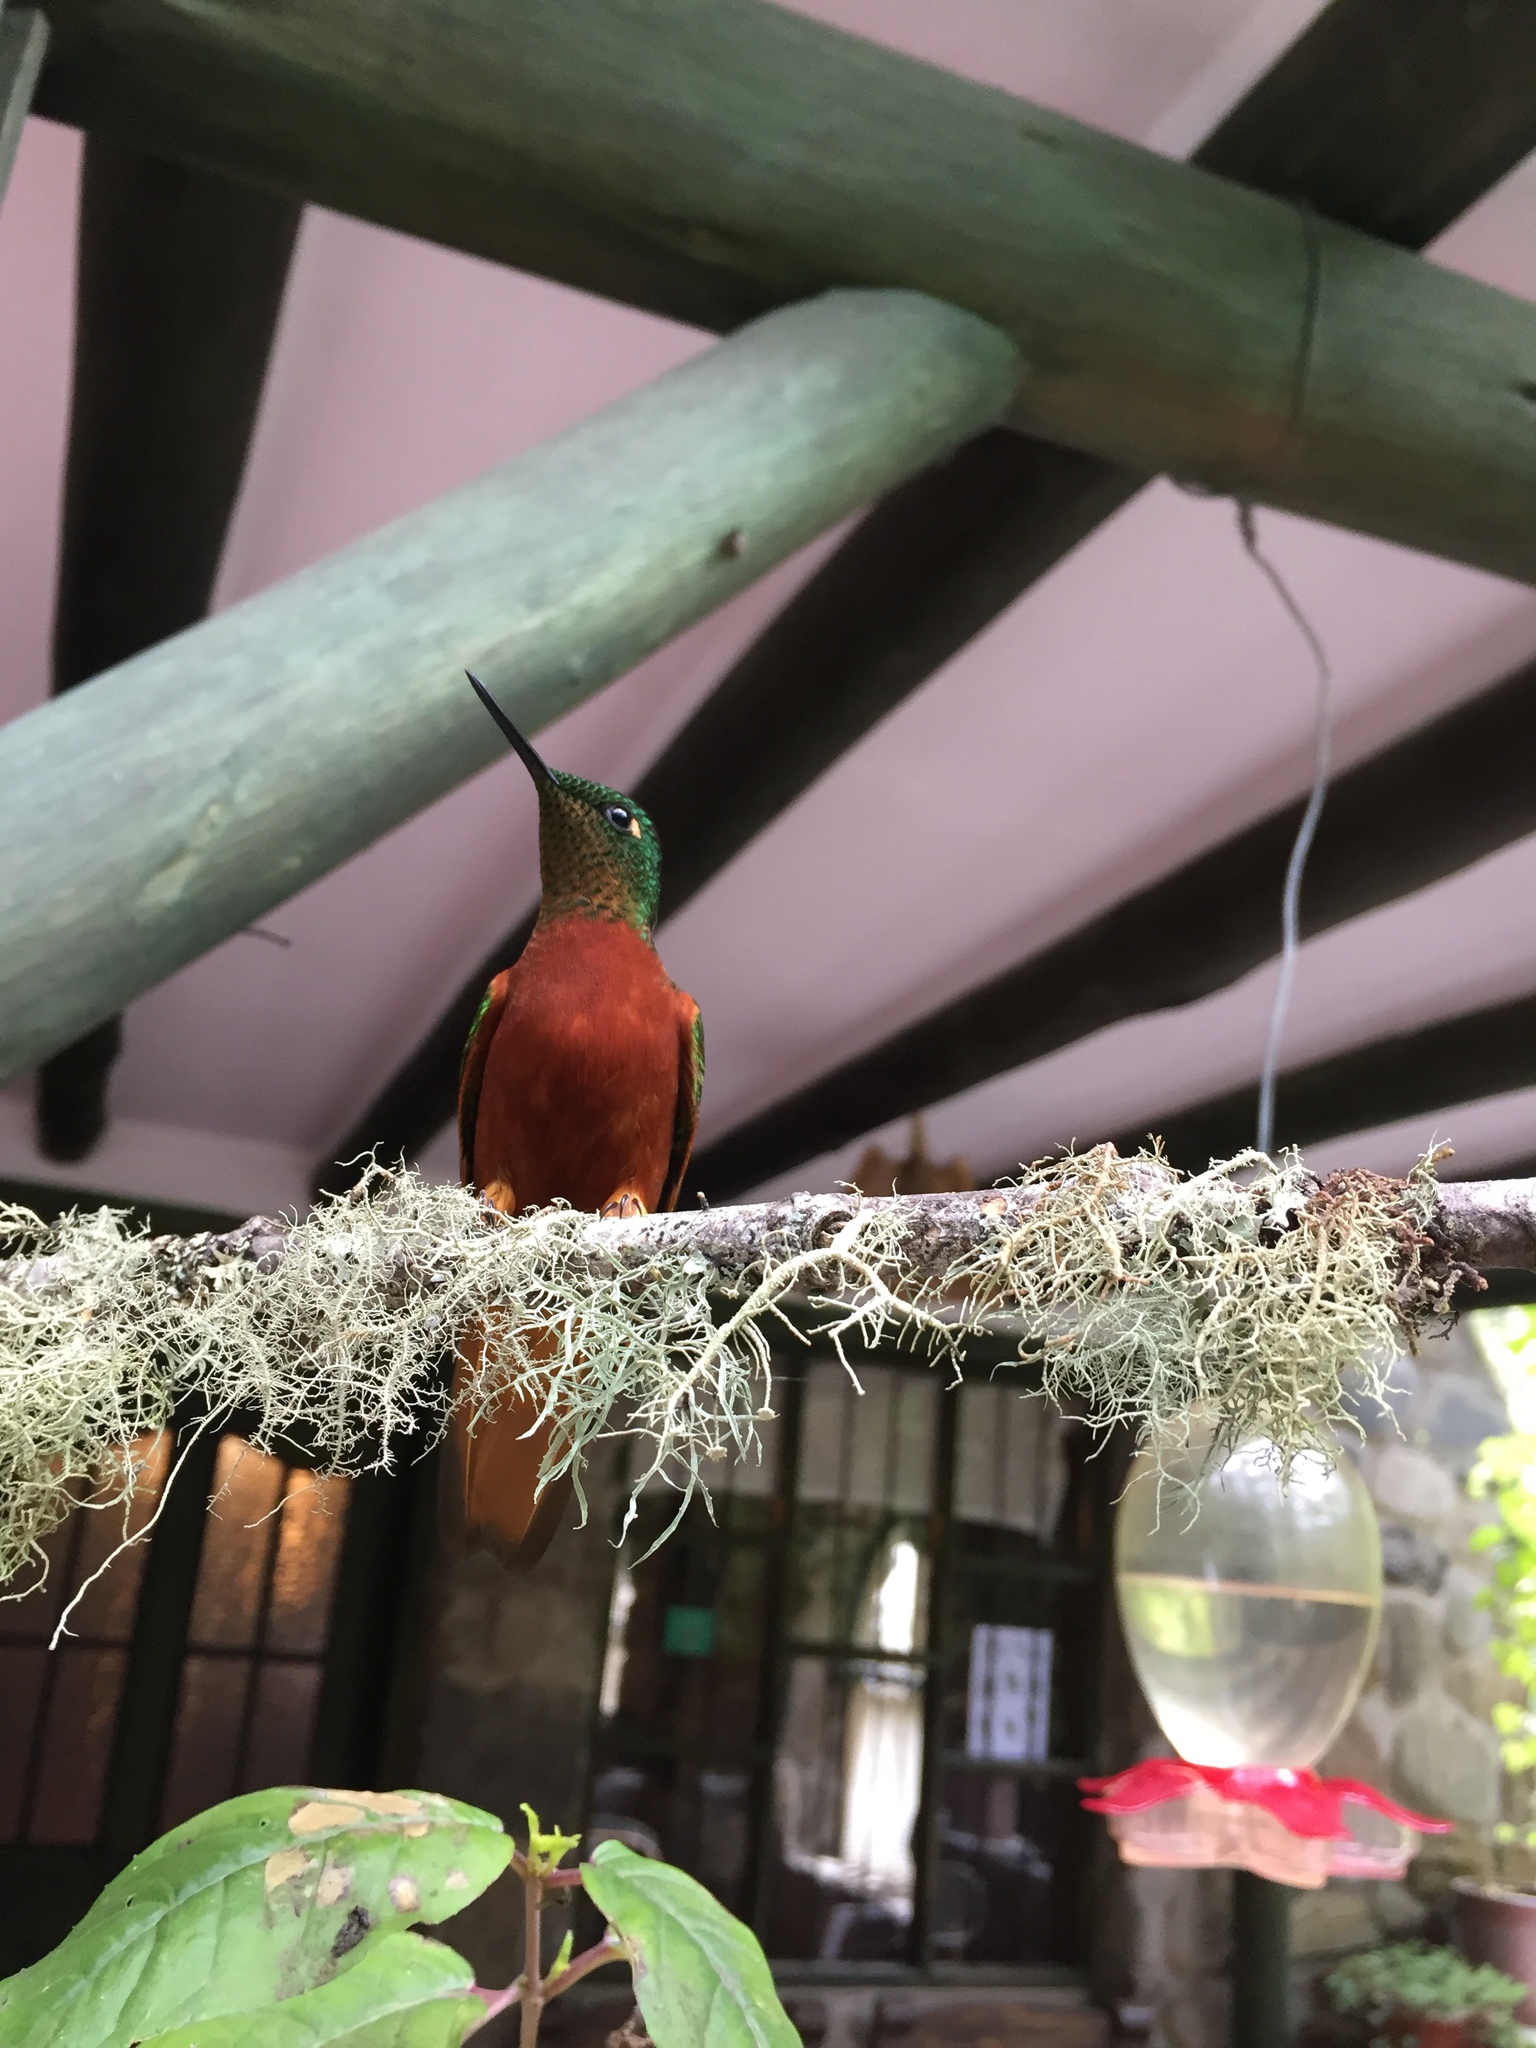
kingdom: Animalia
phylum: Chordata
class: Aves
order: Apodiformes
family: Trochilidae
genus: Boissonneaua
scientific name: Boissonneaua matthewsii
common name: Chestnut-breasted coronet
